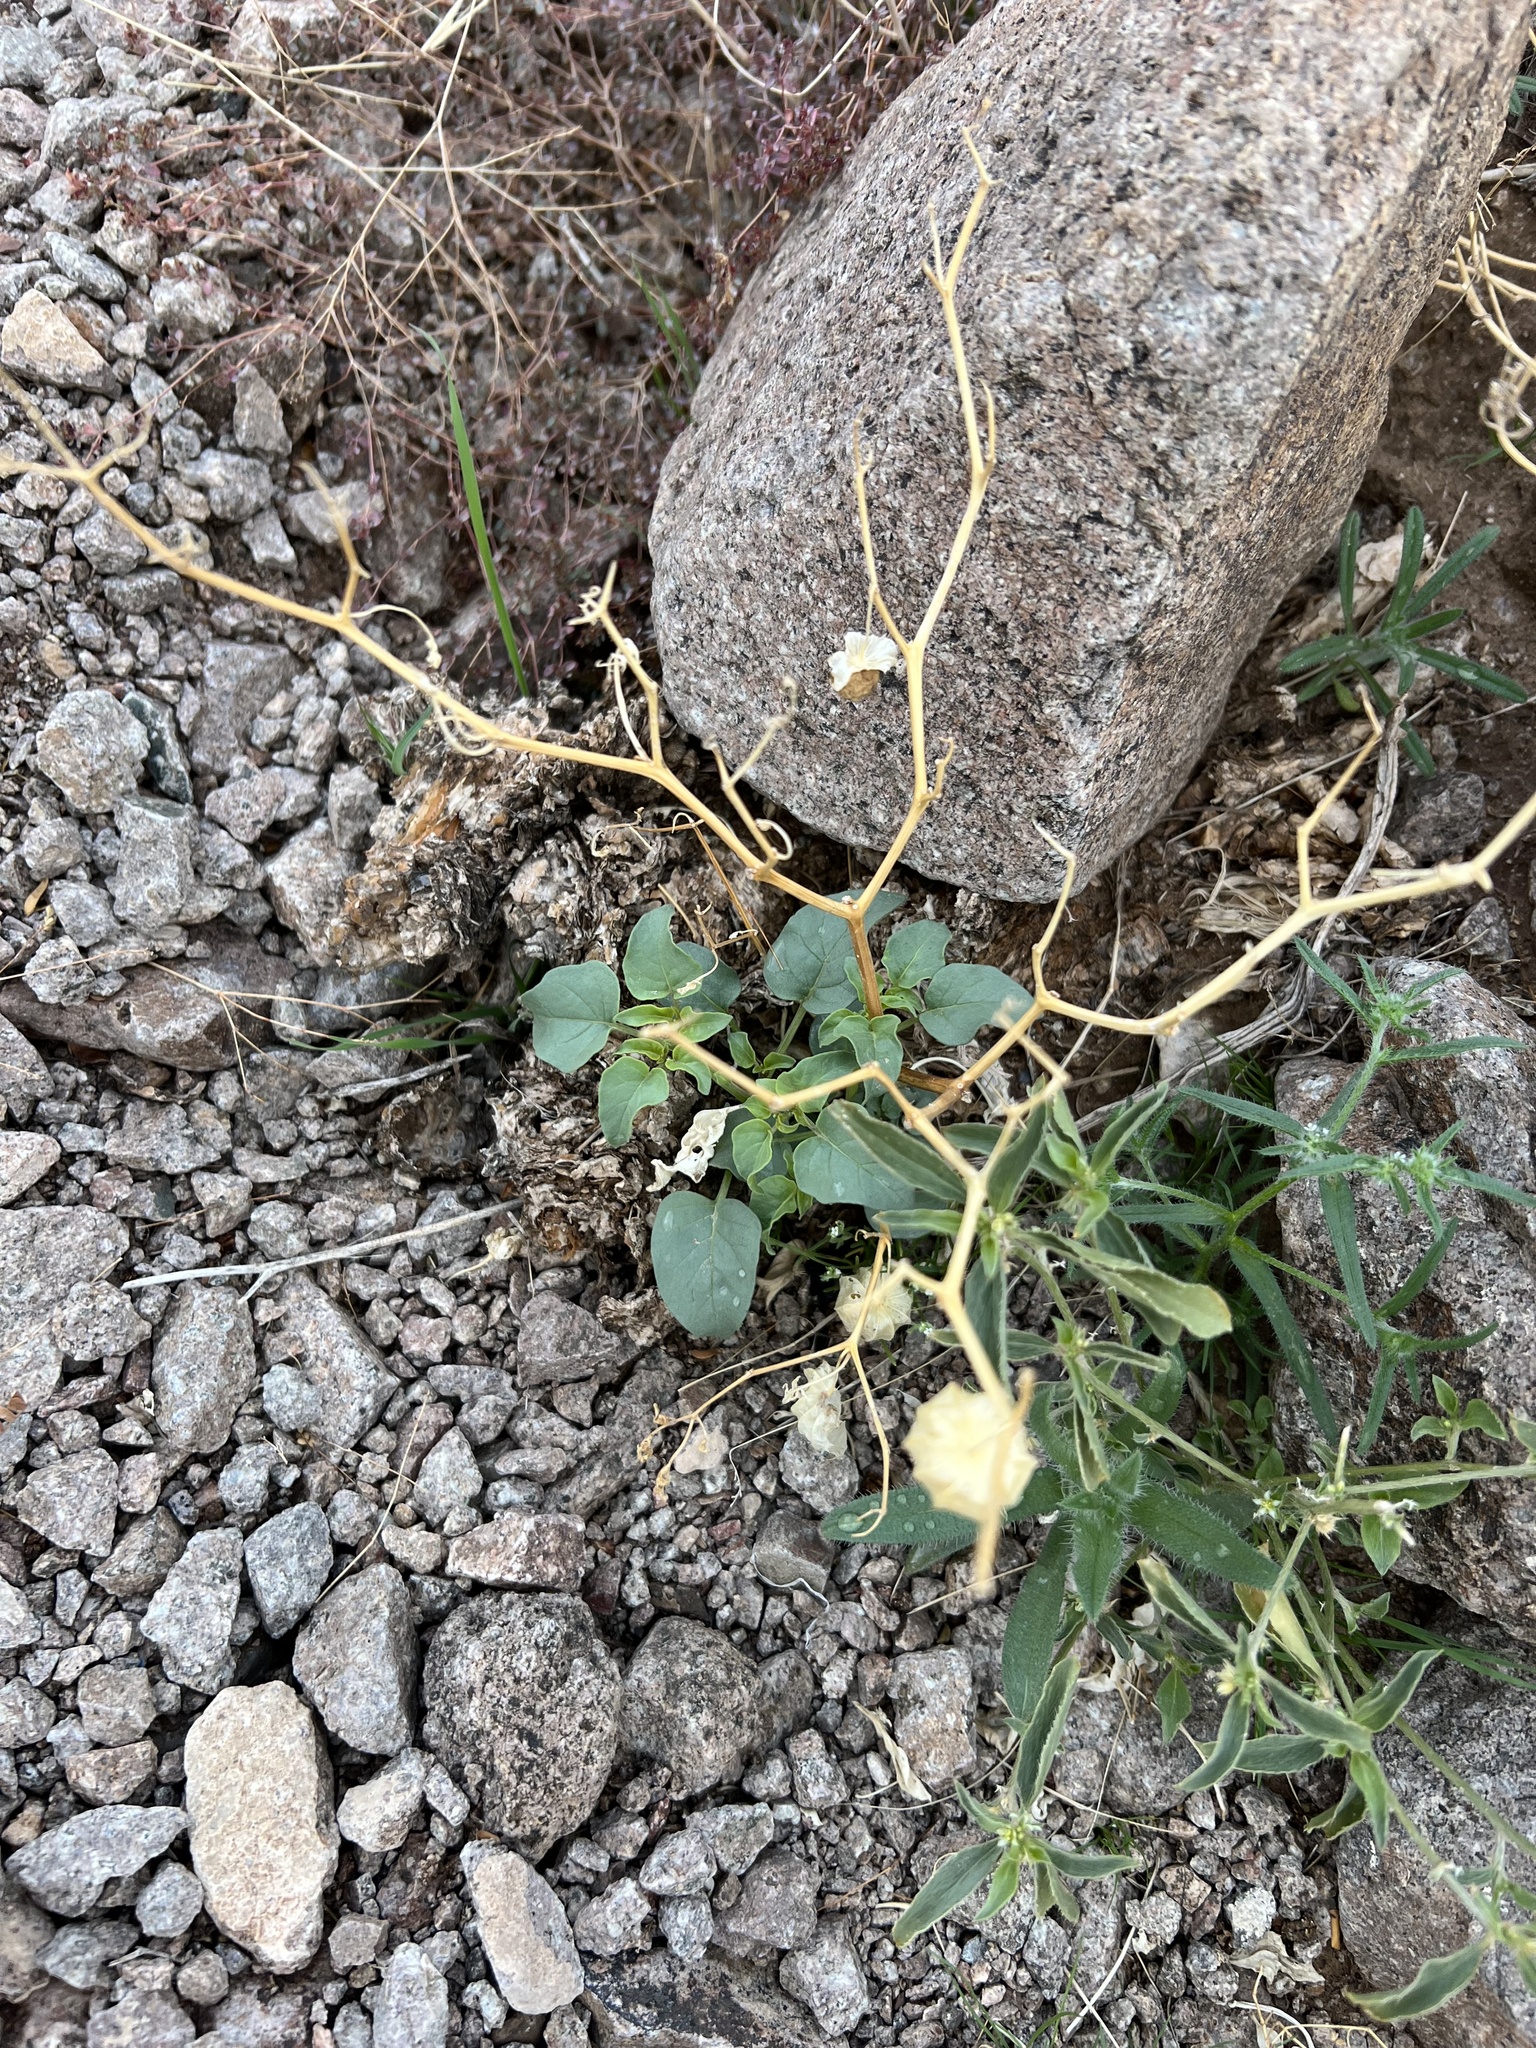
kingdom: Plantae
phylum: Tracheophyta
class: Magnoliopsida
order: Solanales
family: Solanaceae
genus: Physalis
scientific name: Physalis crassifolia
